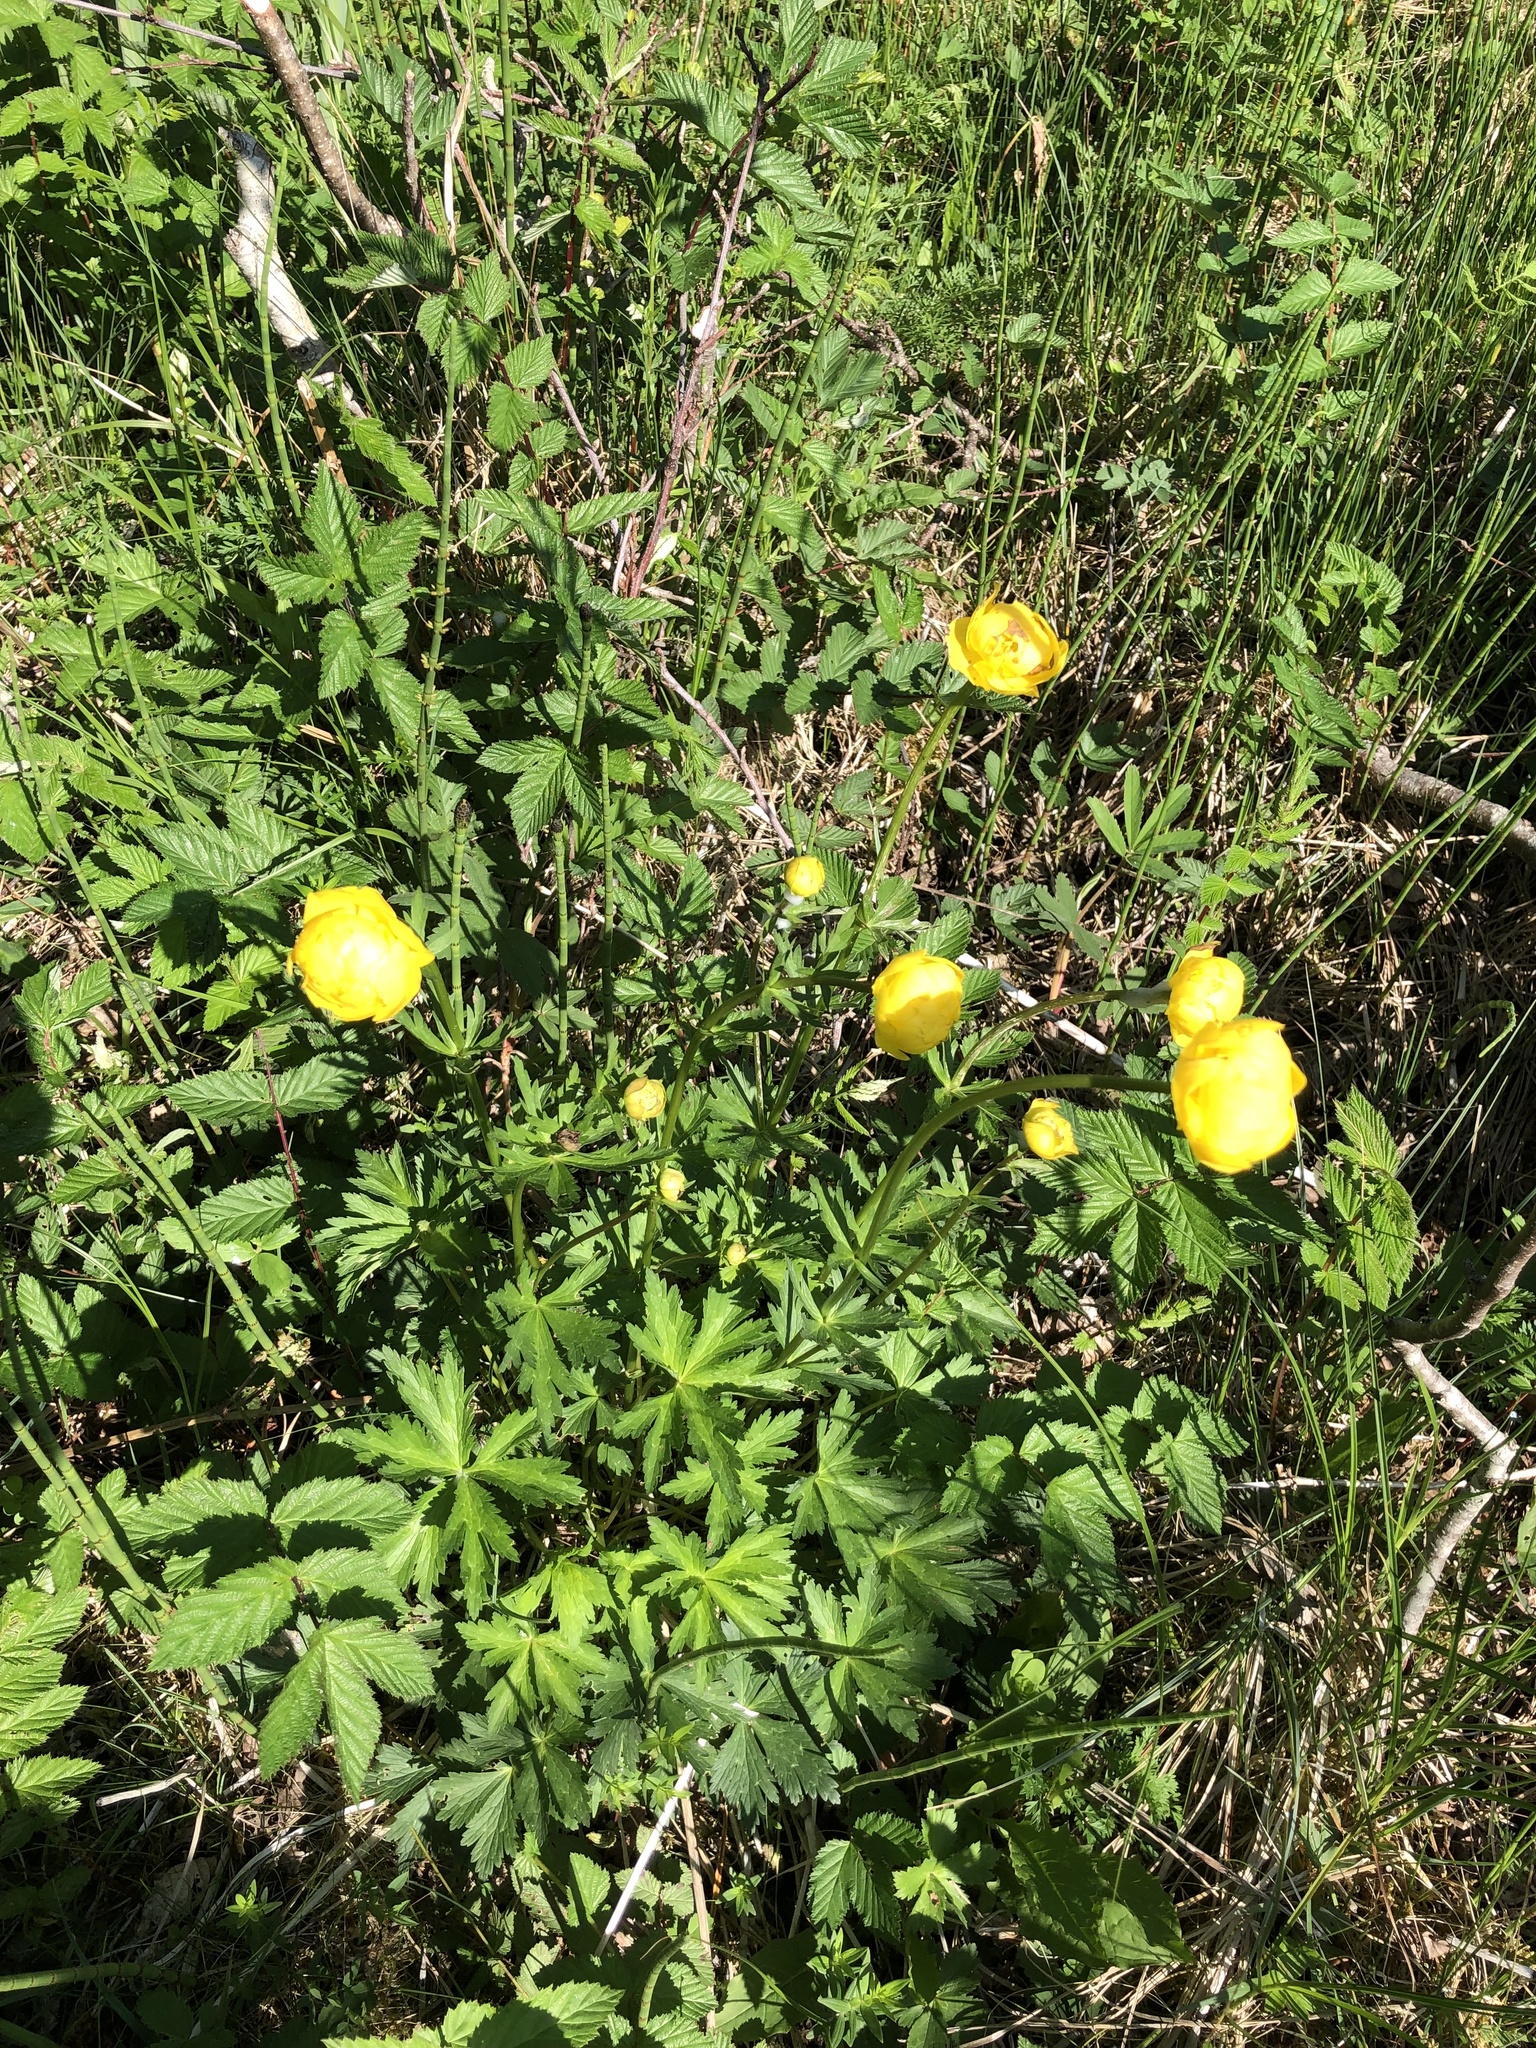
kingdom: Plantae
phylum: Tracheophyta
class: Magnoliopsida
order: Ranunculales
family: Ranunculaceae
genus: Trollius
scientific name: Trollius europaeus
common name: European globeflower
